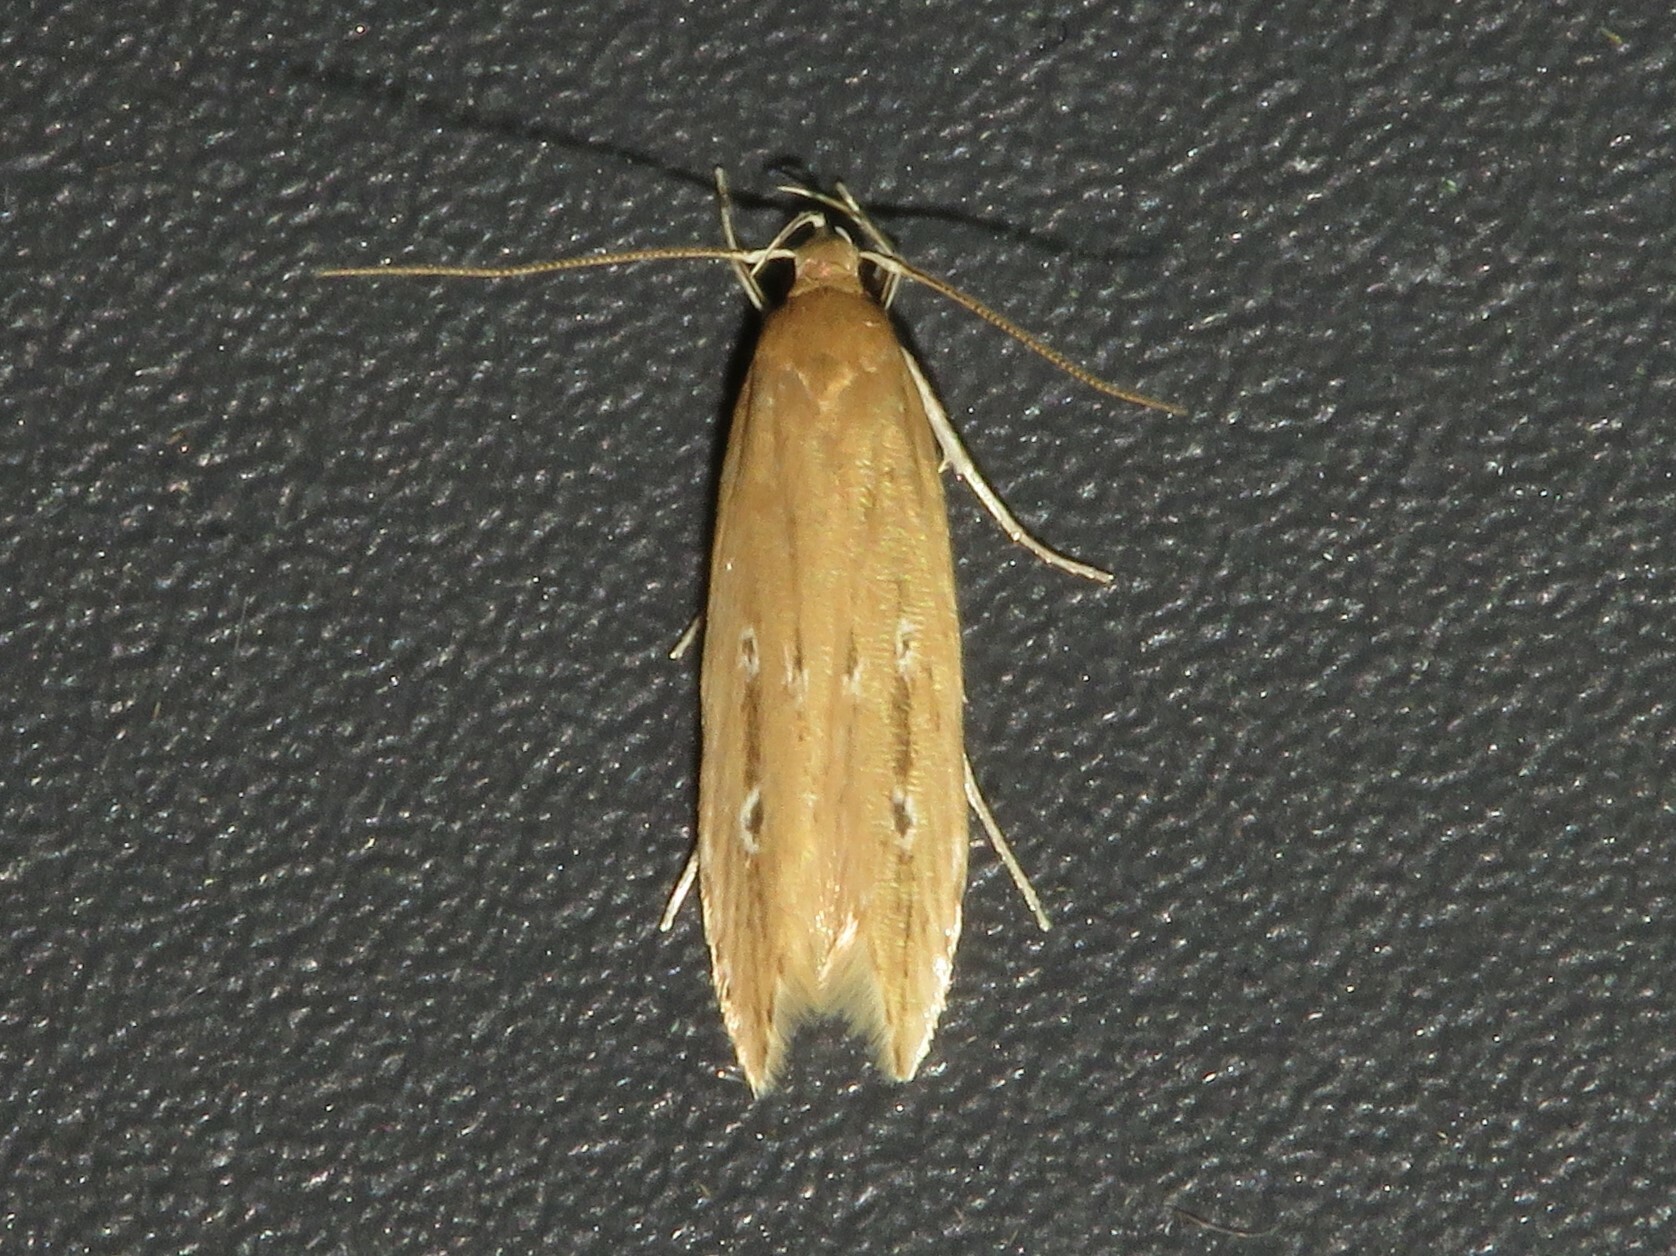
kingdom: Animalia
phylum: Arthropoda
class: Insecta
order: Lepidoptera
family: Cosmopterigidae
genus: Limnaecia
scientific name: Limnaecia phragmitella
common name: Bulrush cosmet
